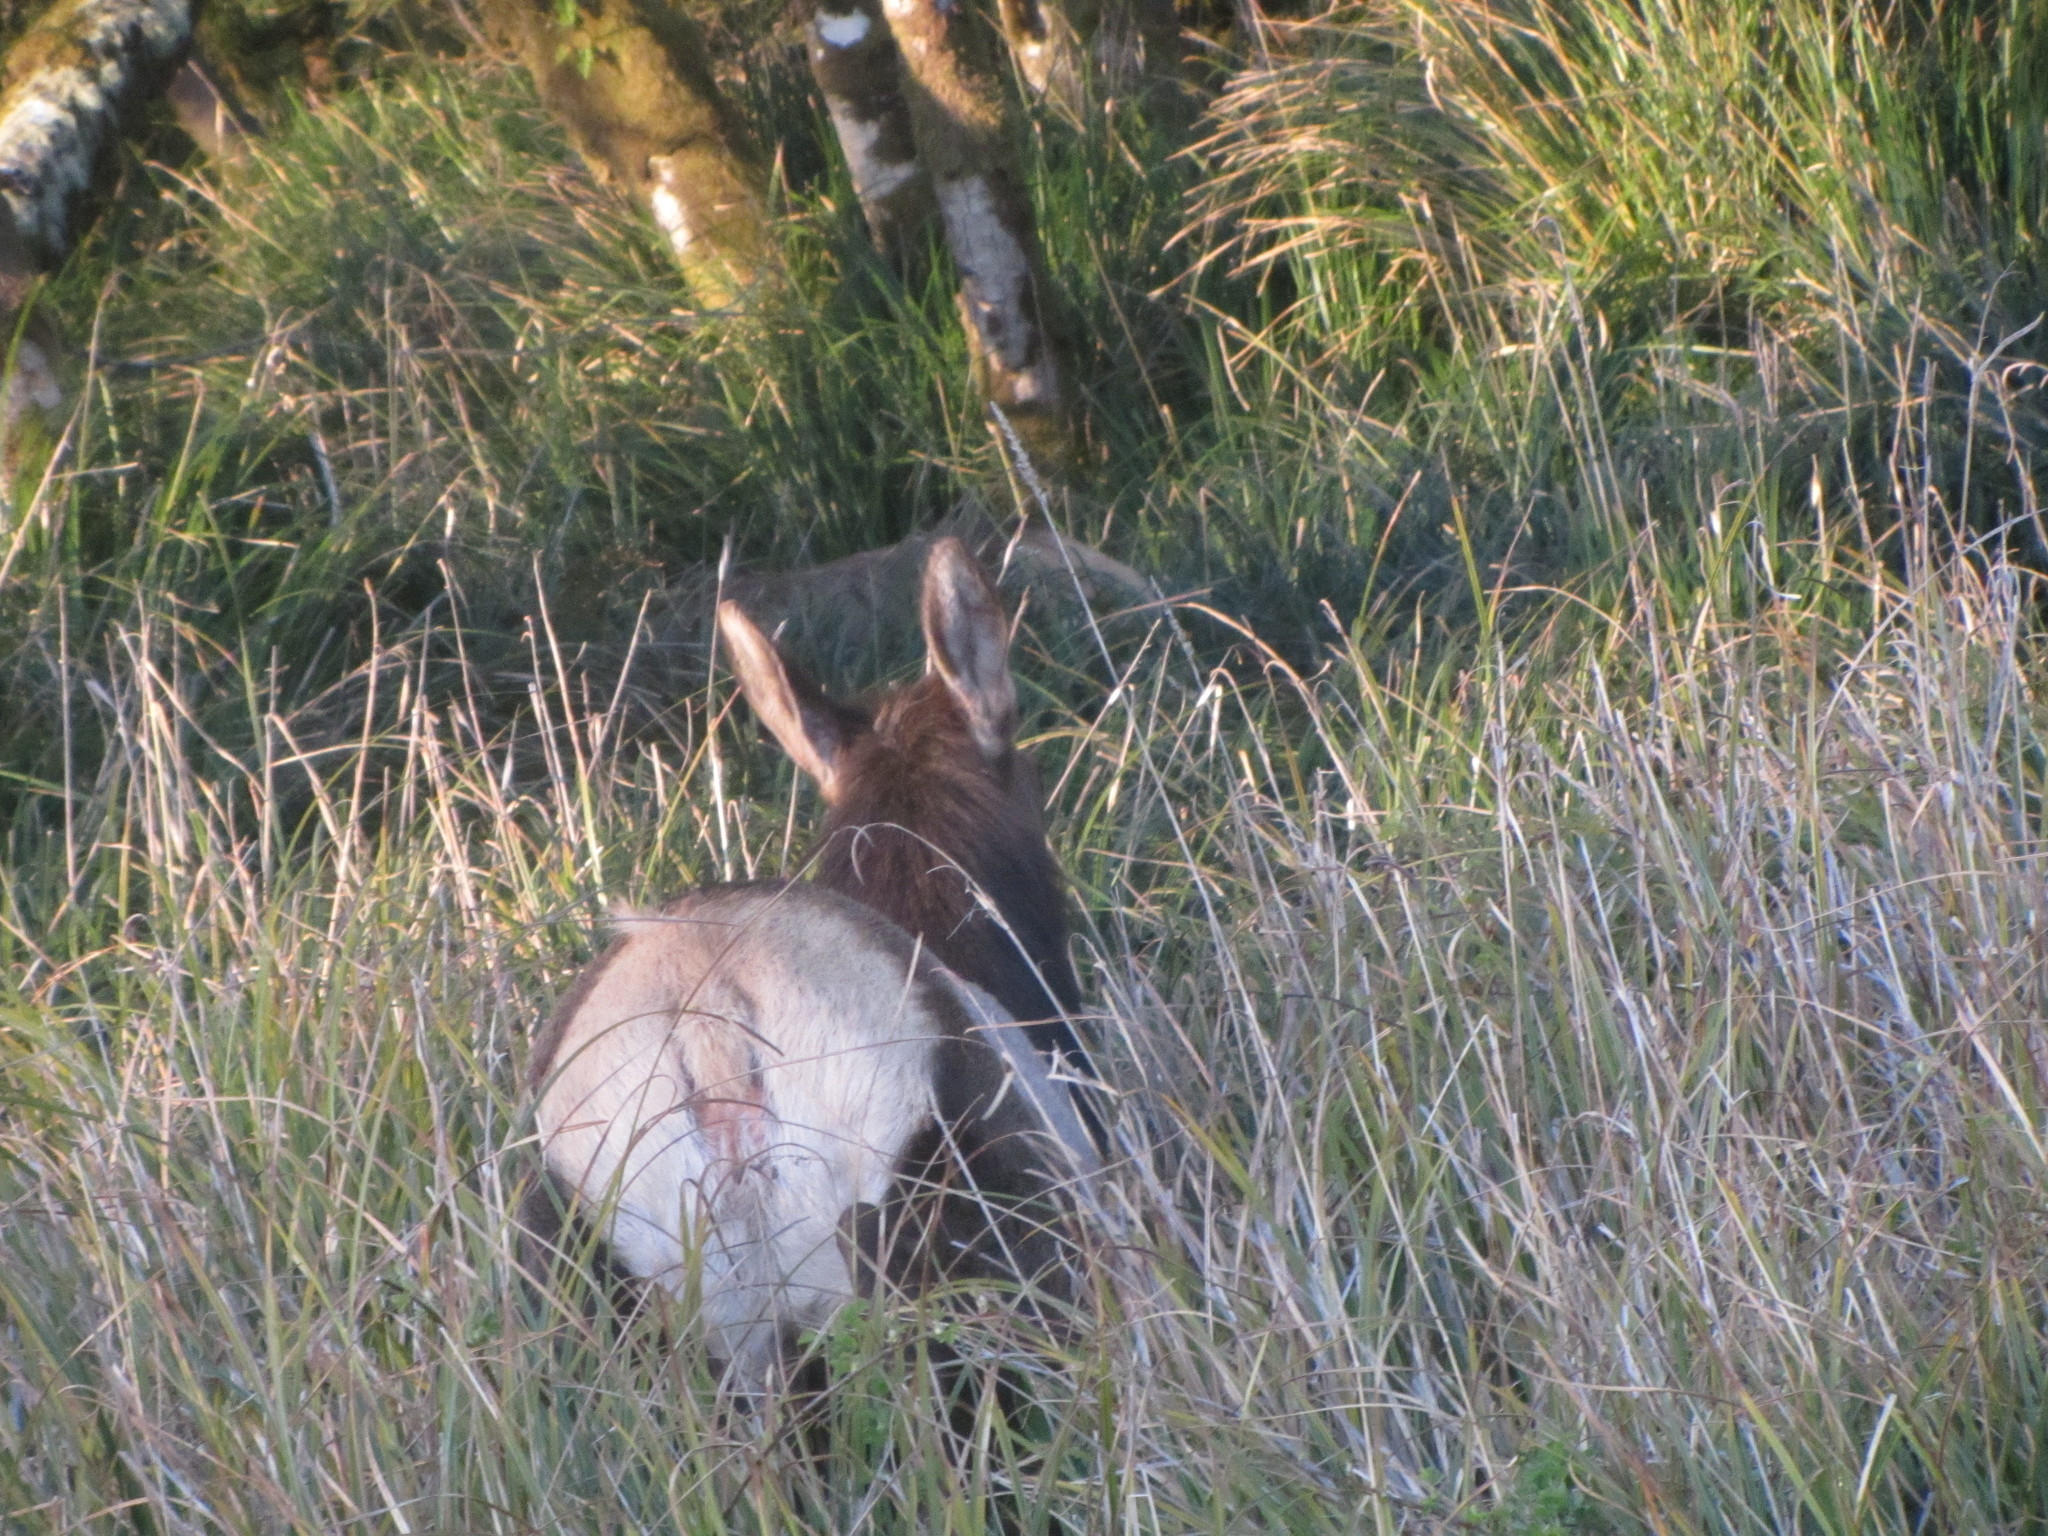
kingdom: Animalia
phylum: Chordata
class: Mammalia
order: Artiodactyla
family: Cervidae
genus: Cervus
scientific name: Cervus elaphus
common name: Red deer
